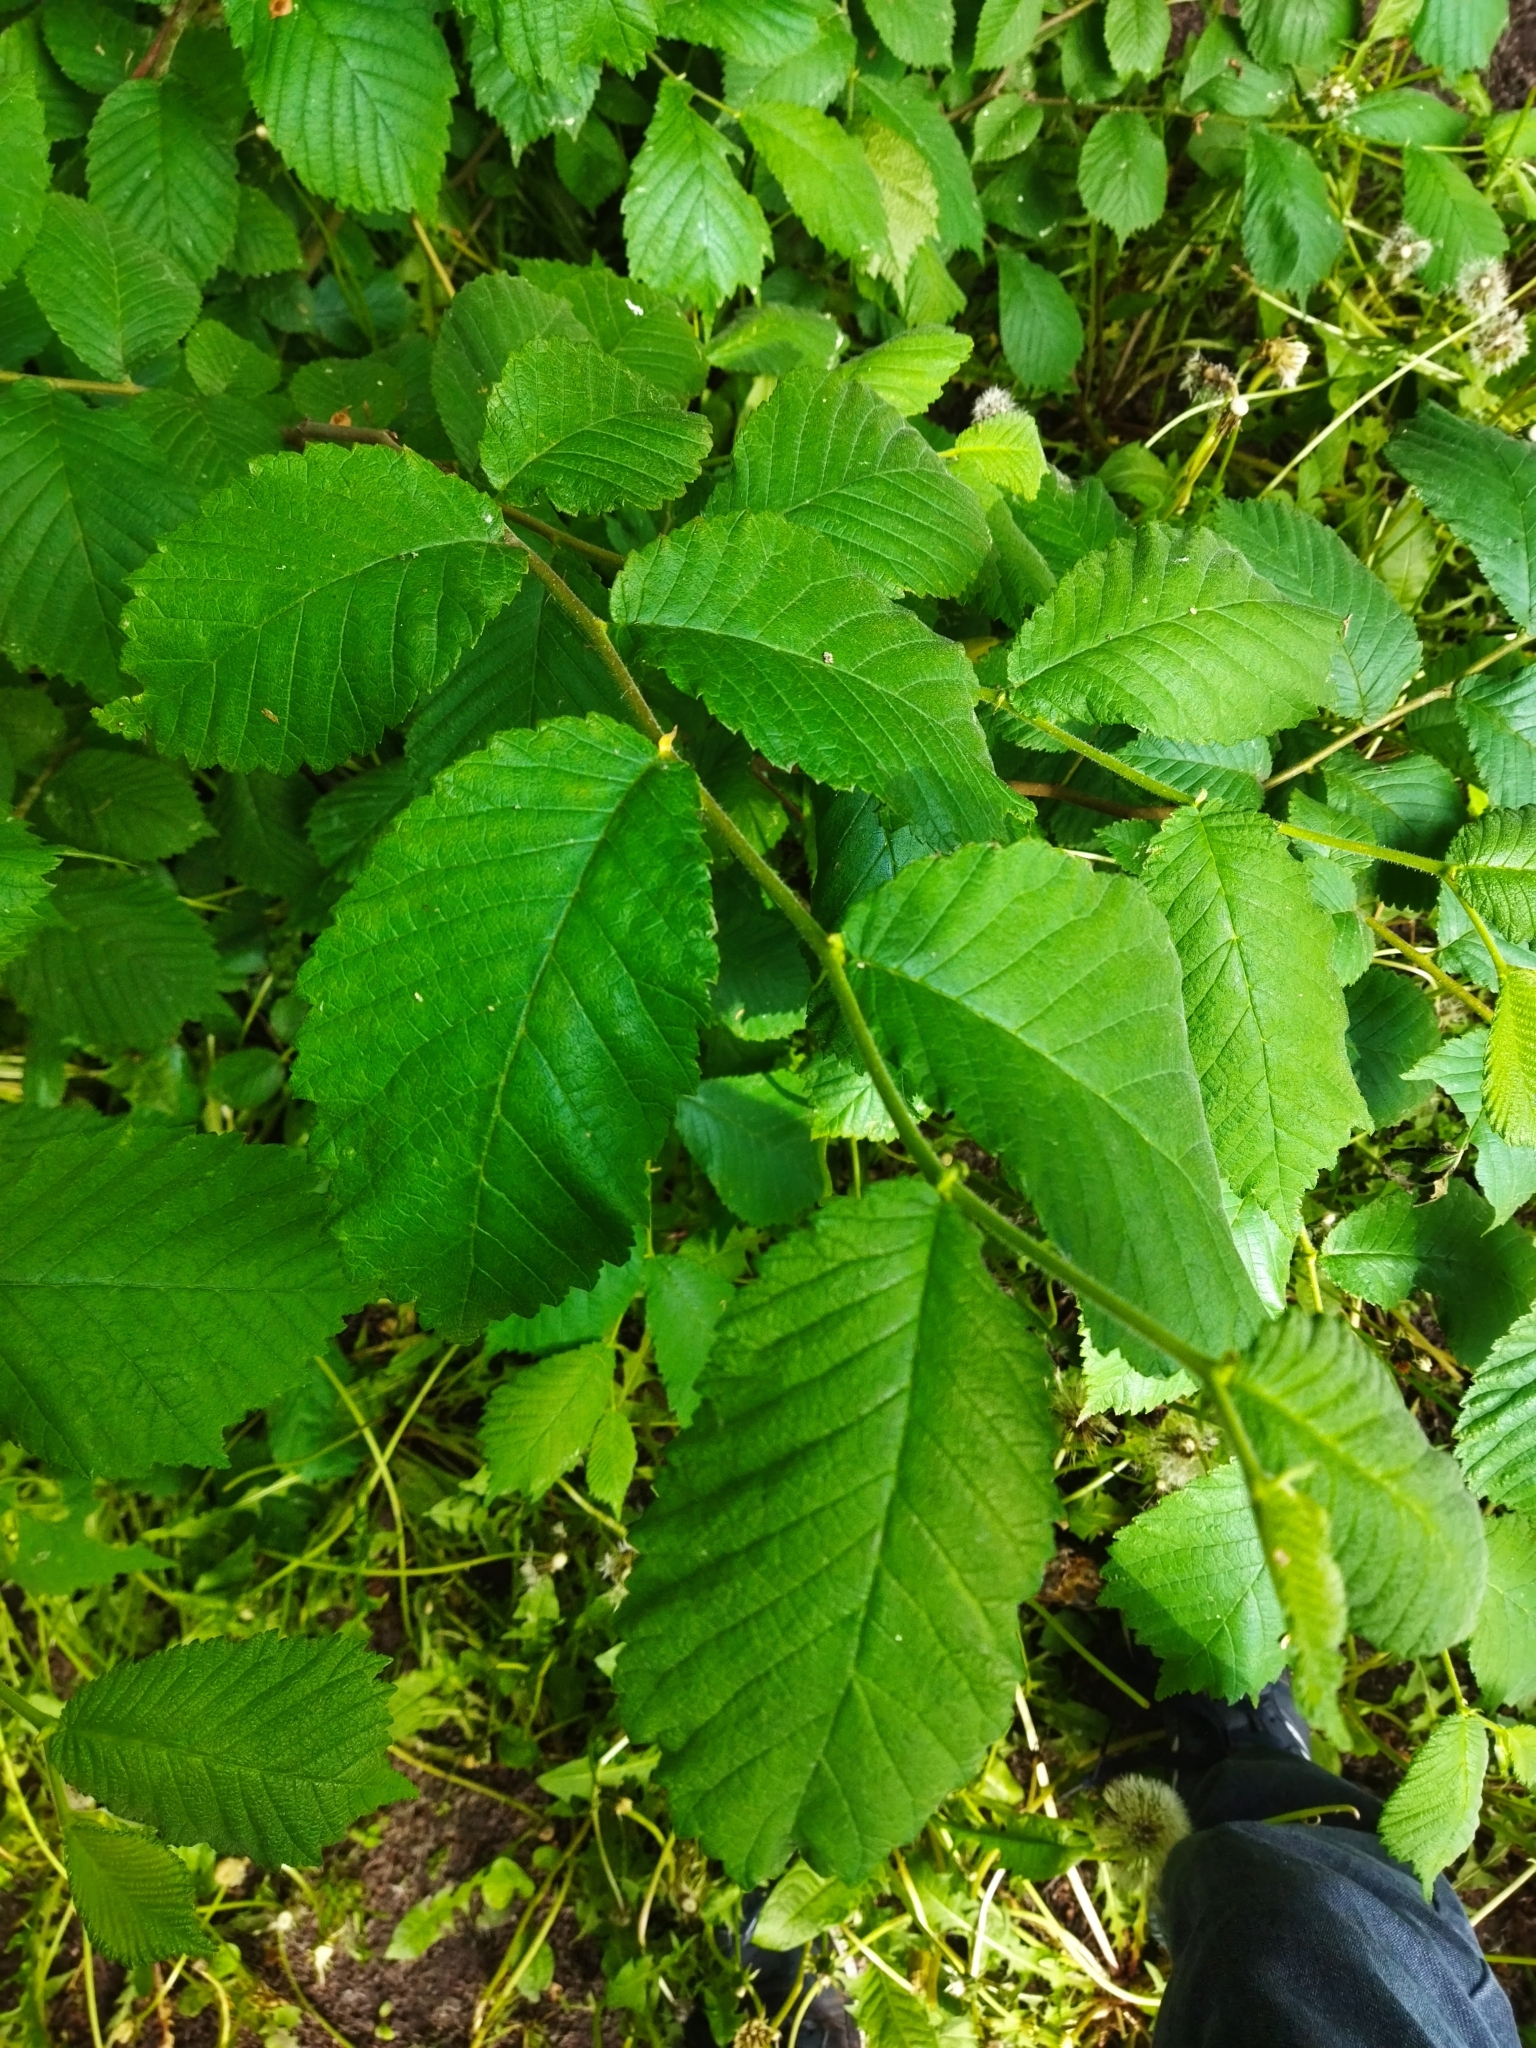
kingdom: Plantae
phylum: Tracheophyta
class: Magnoliopsida
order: Rosales
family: Ulmaceae
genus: Ulmus
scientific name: Ulmus glabra
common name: Wych elm
